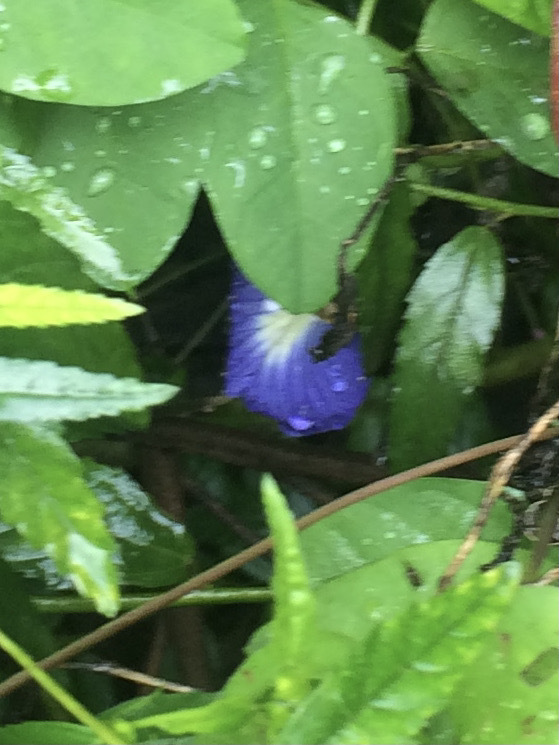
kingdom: Plantae
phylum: Tracheophyta
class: Magnoliopsida
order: Fabales
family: Fabaceae
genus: Clitoria
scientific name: Clitoria ternatea
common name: Asian pigeonwings
